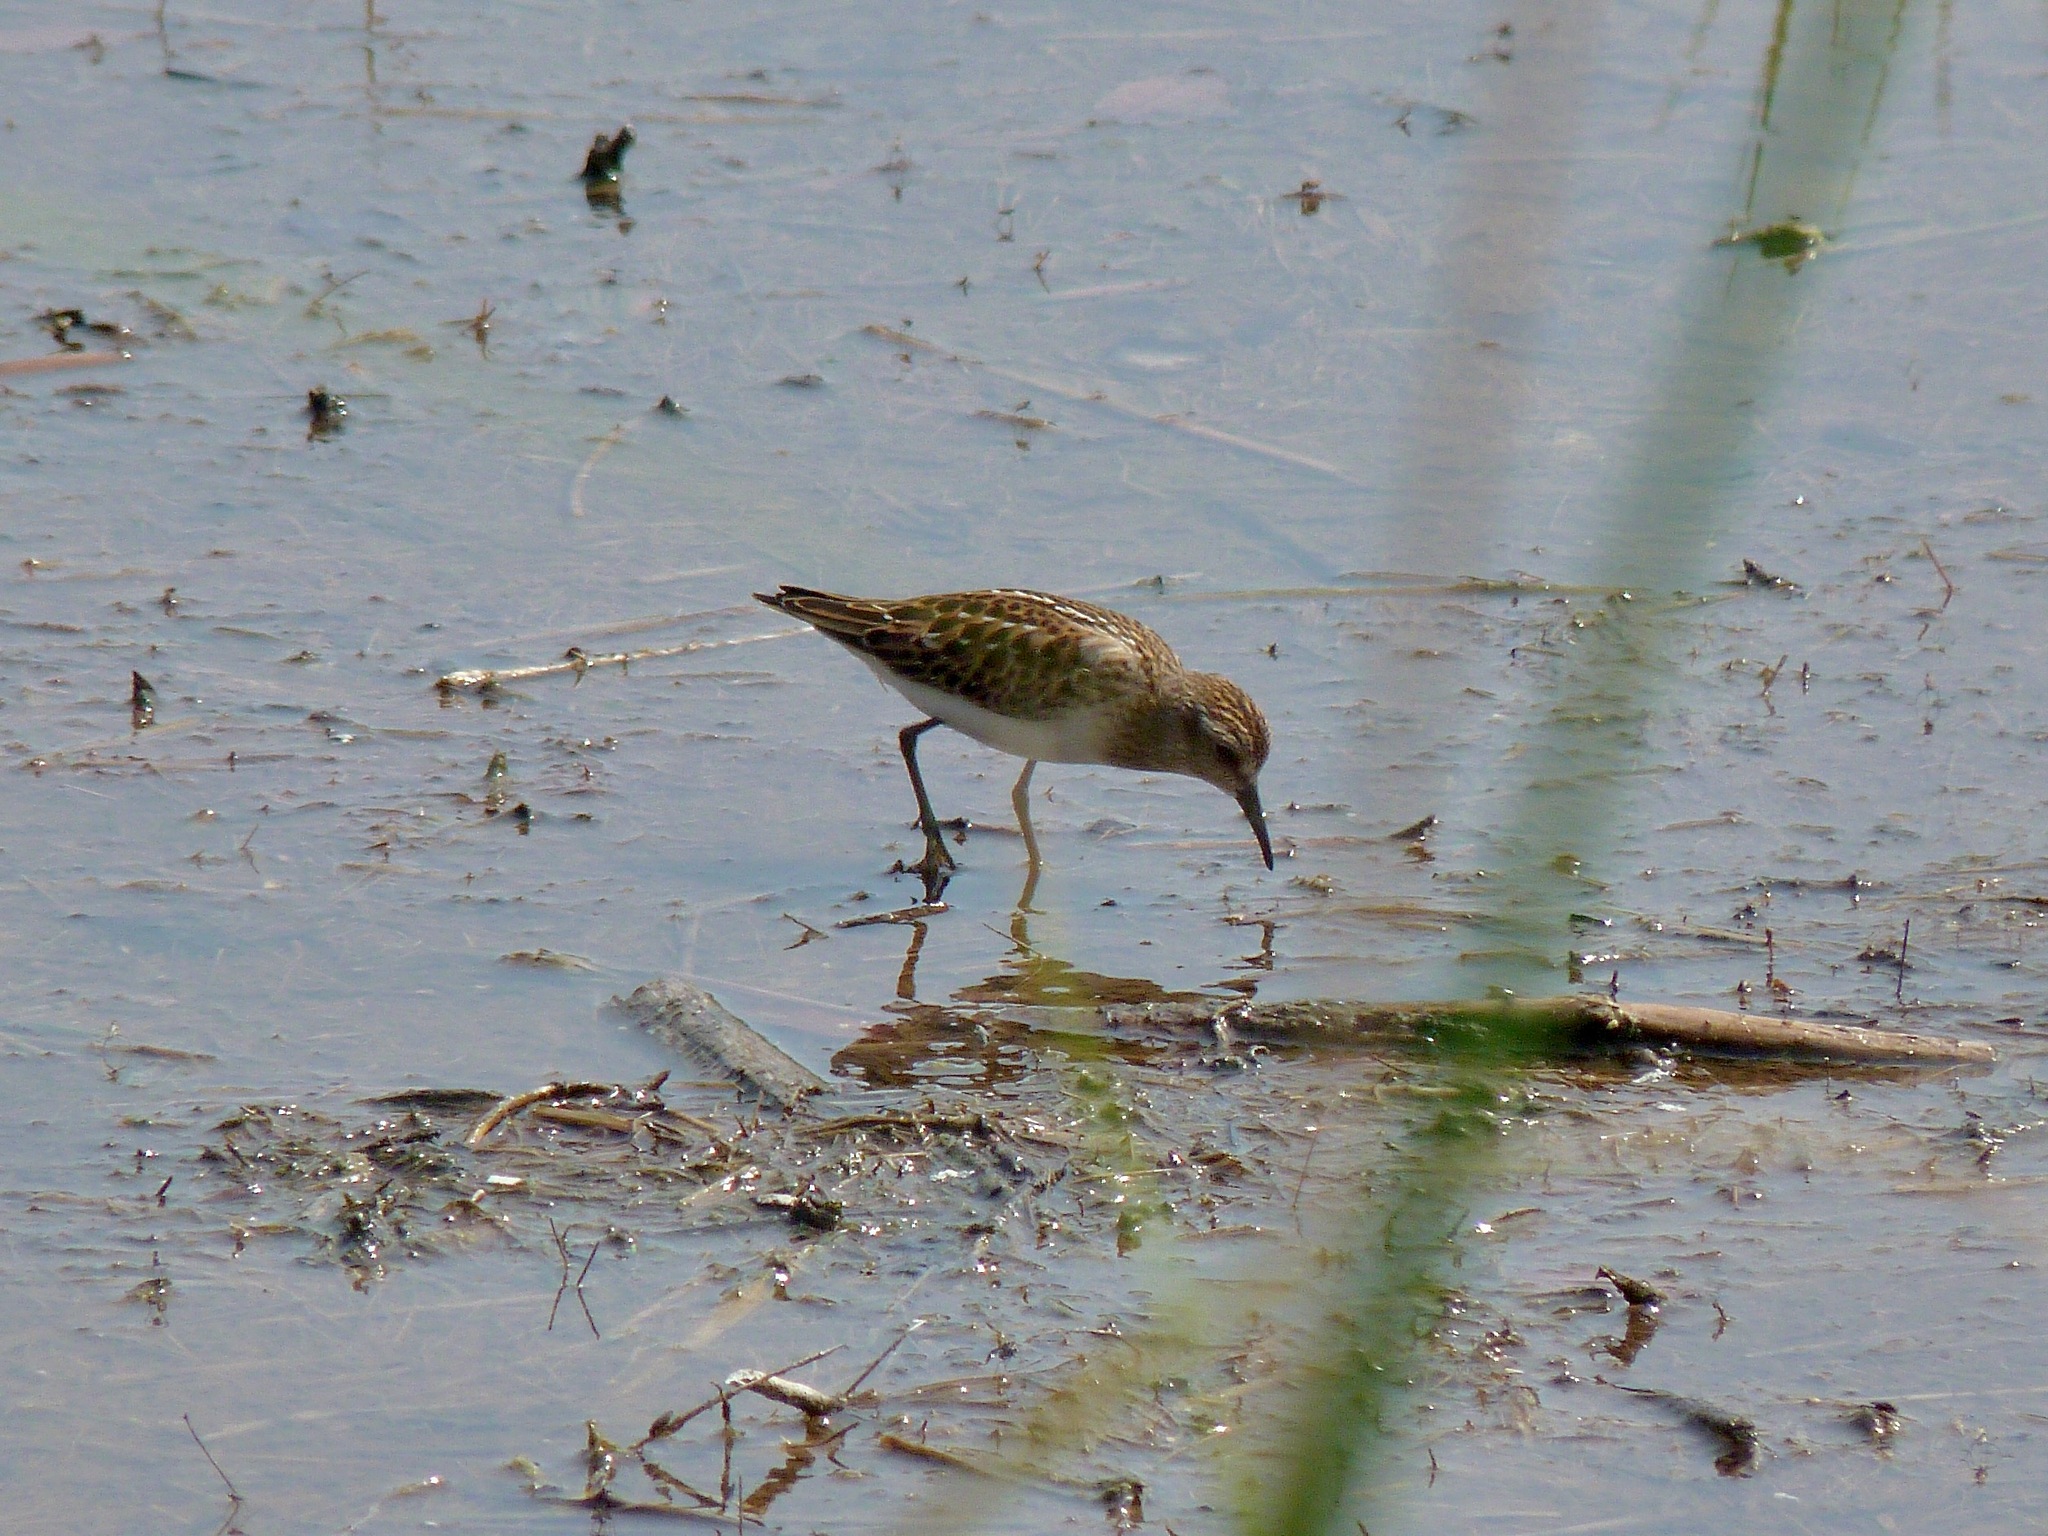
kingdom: Animalia
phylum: Chordata
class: Aves
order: Charadriiformes
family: Scolopacidae
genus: Calidris
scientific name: Calidris minutilla
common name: Least sandpiper
